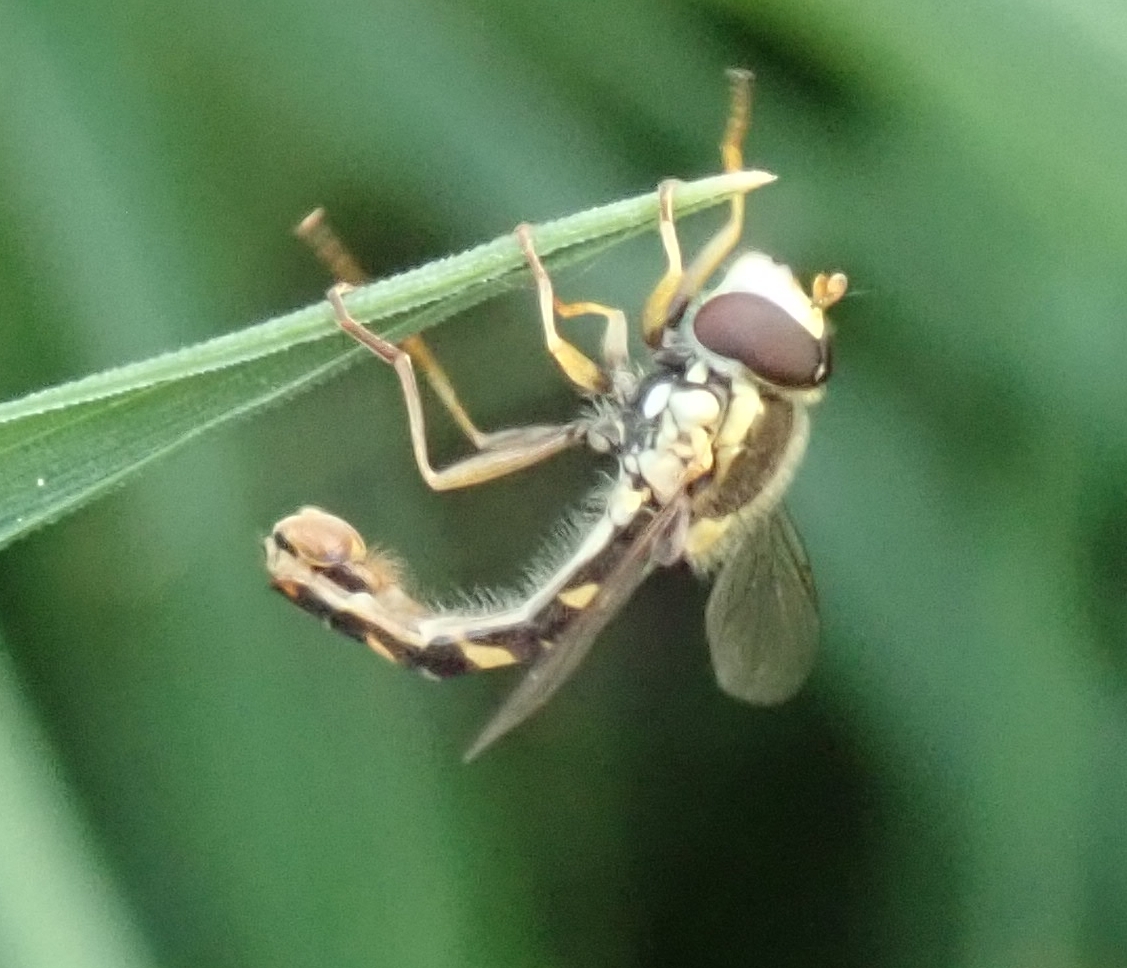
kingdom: Animalia
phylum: Arthropoda
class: Insecta
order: Diptera
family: Syrphidae
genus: Sphaerophoria
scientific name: Sphaerophoria scripta
